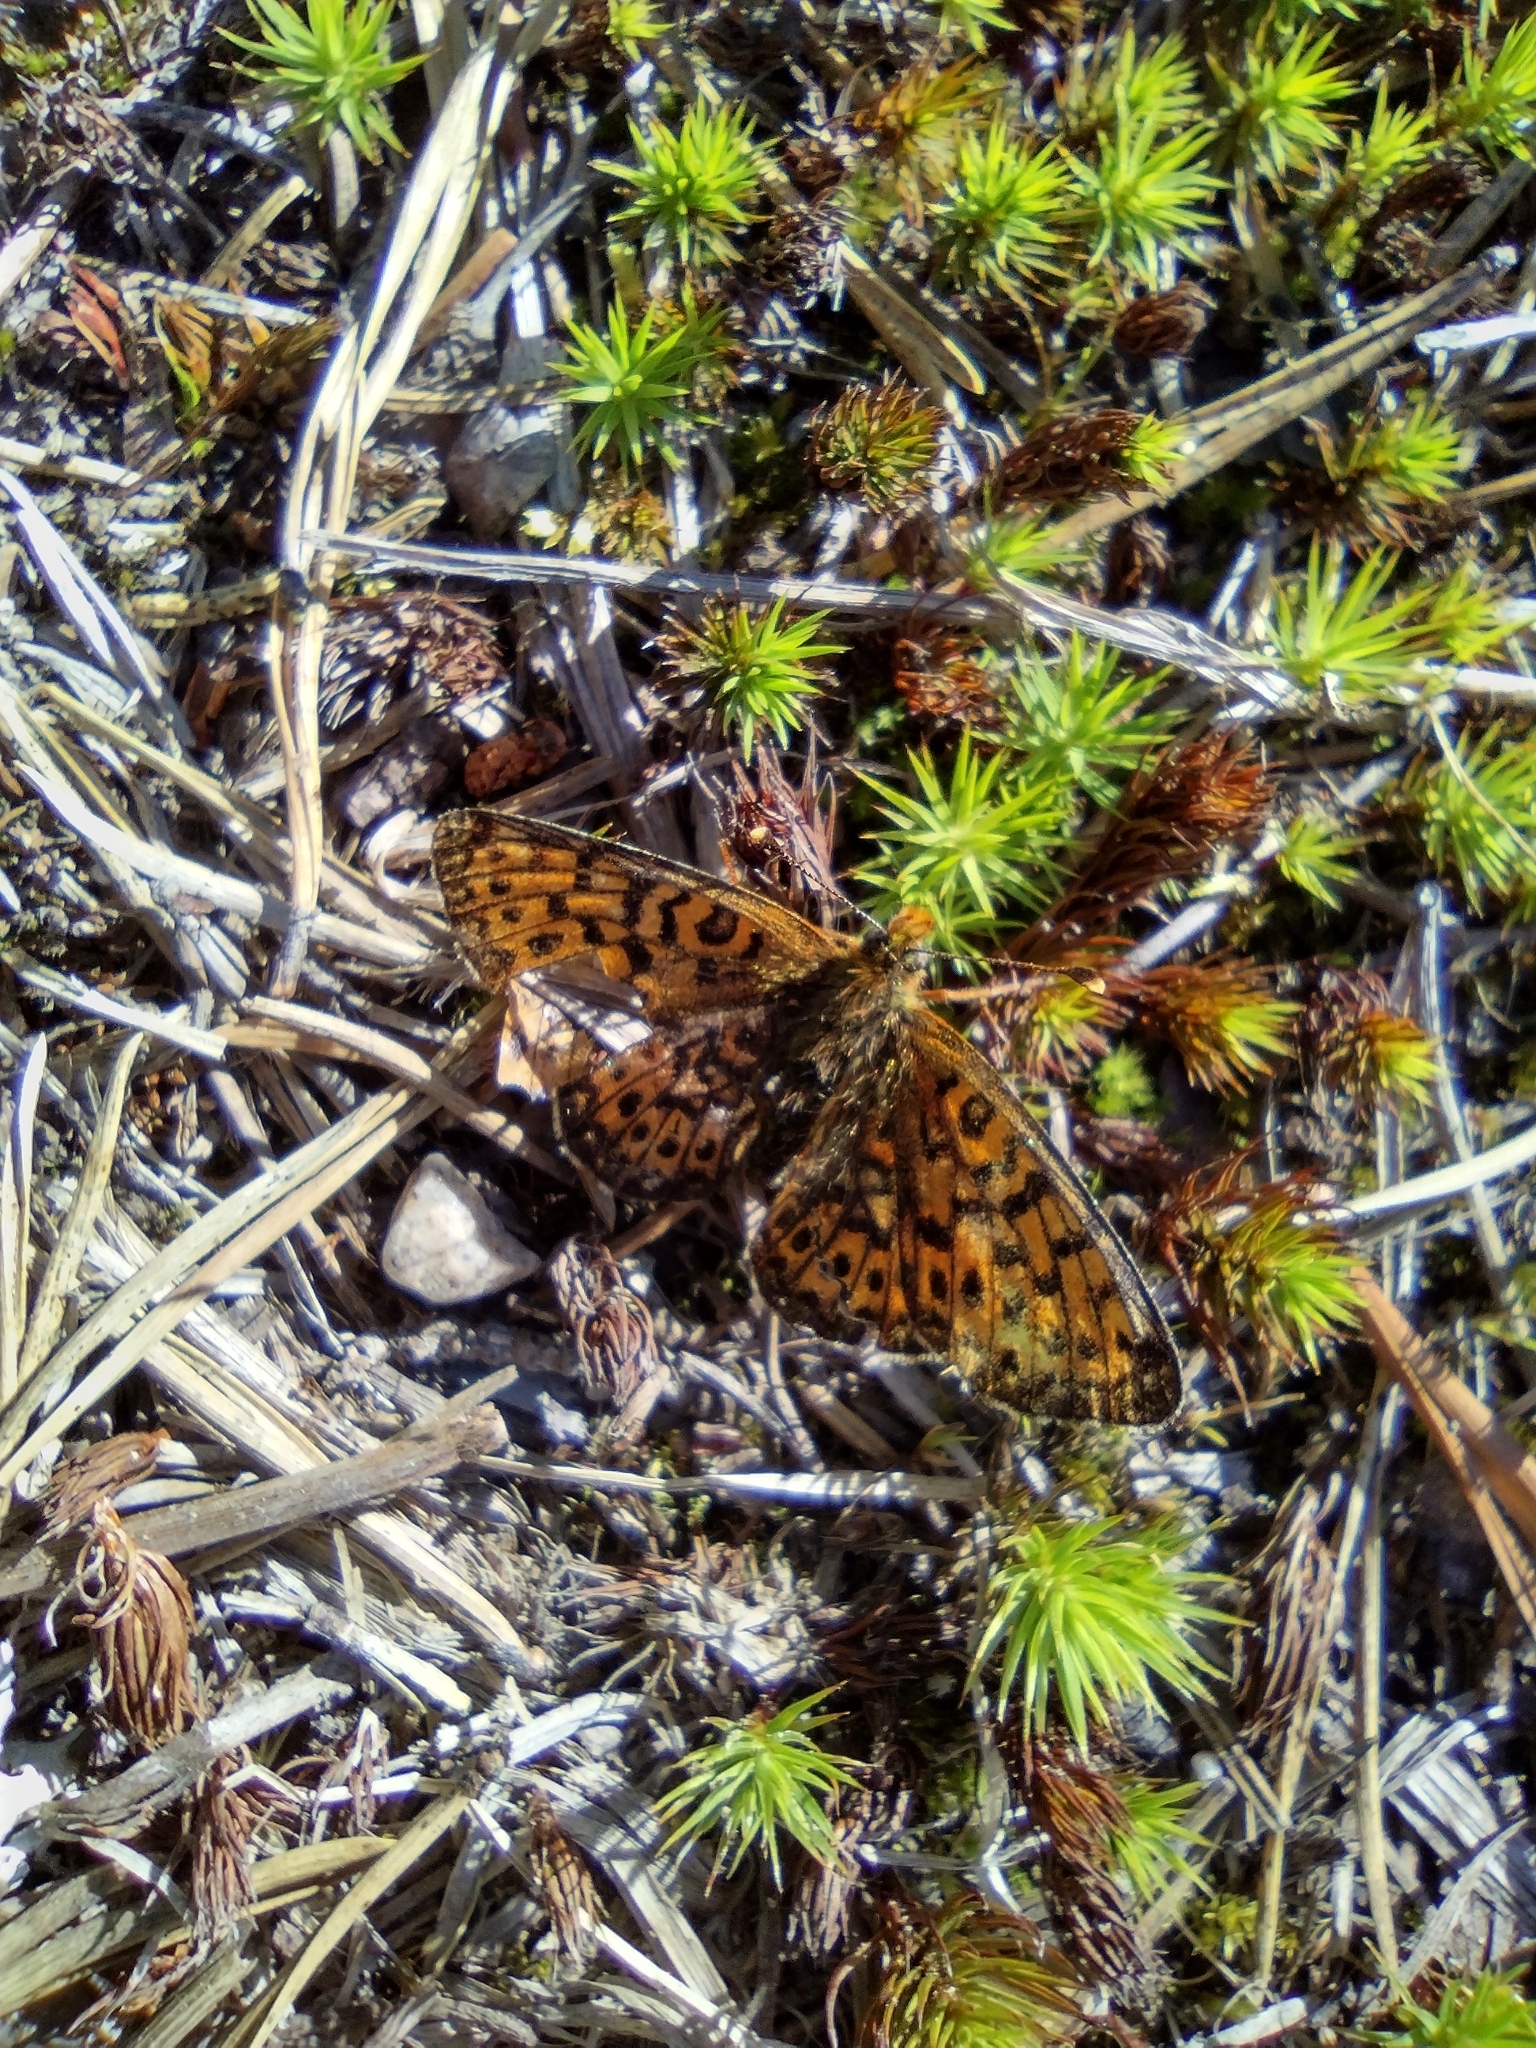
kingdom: Animalia
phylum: Arthropoda
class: Insecta
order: Lepidoptera
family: Nymphalidae
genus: Clossiana
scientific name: Clossiana euphrosyne
